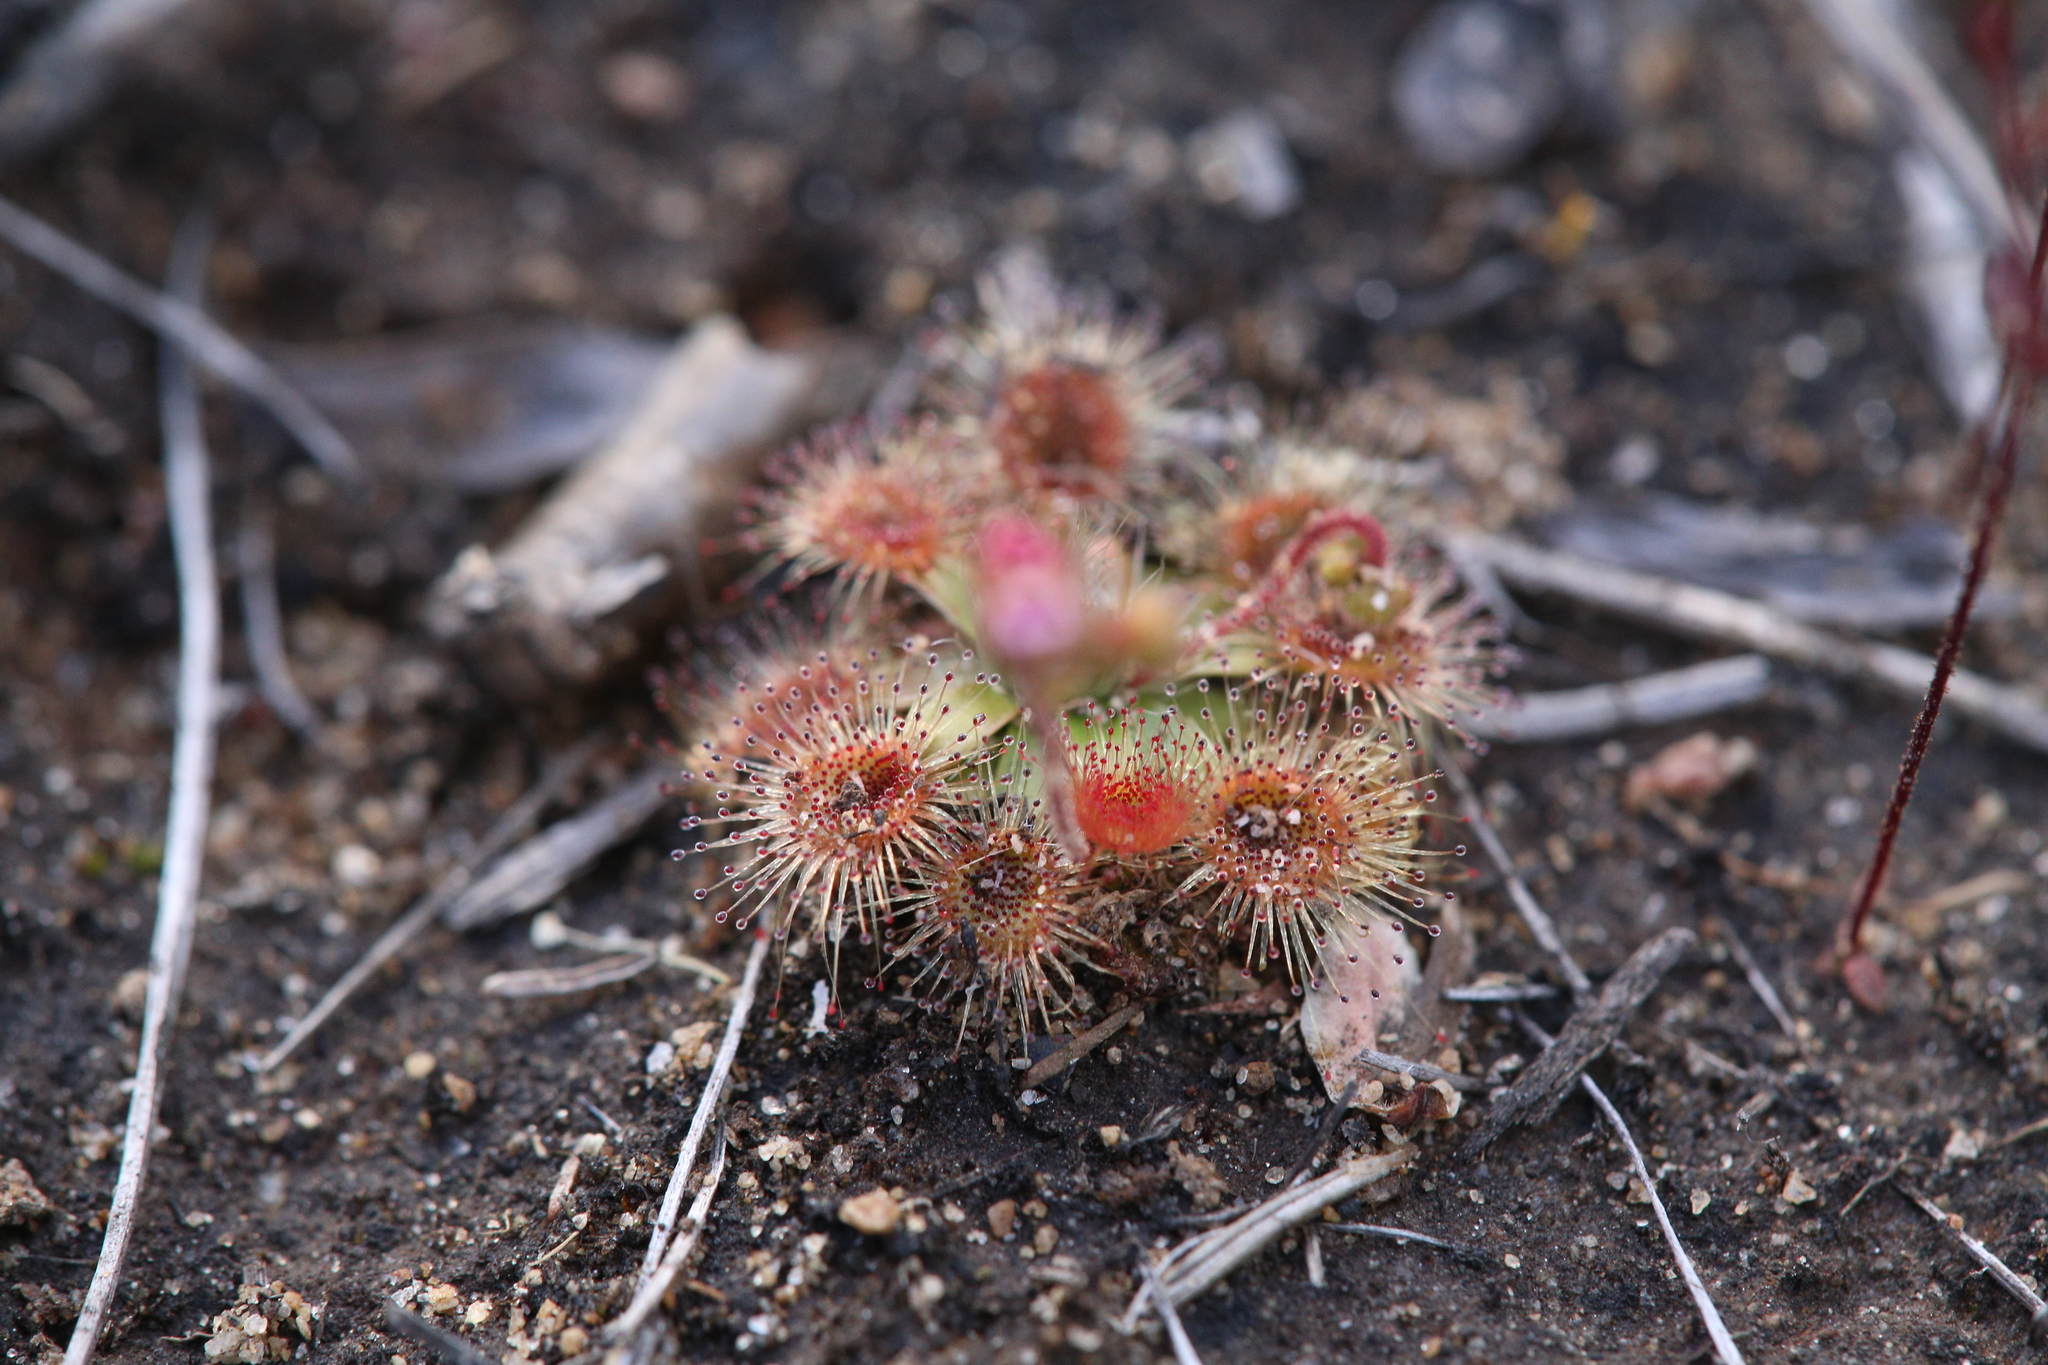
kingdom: Plantae
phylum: Tracheophyta
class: Magnoliopsida
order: Caryophyllales
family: Droseraceae
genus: Drosera
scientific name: Drosera pulchella
